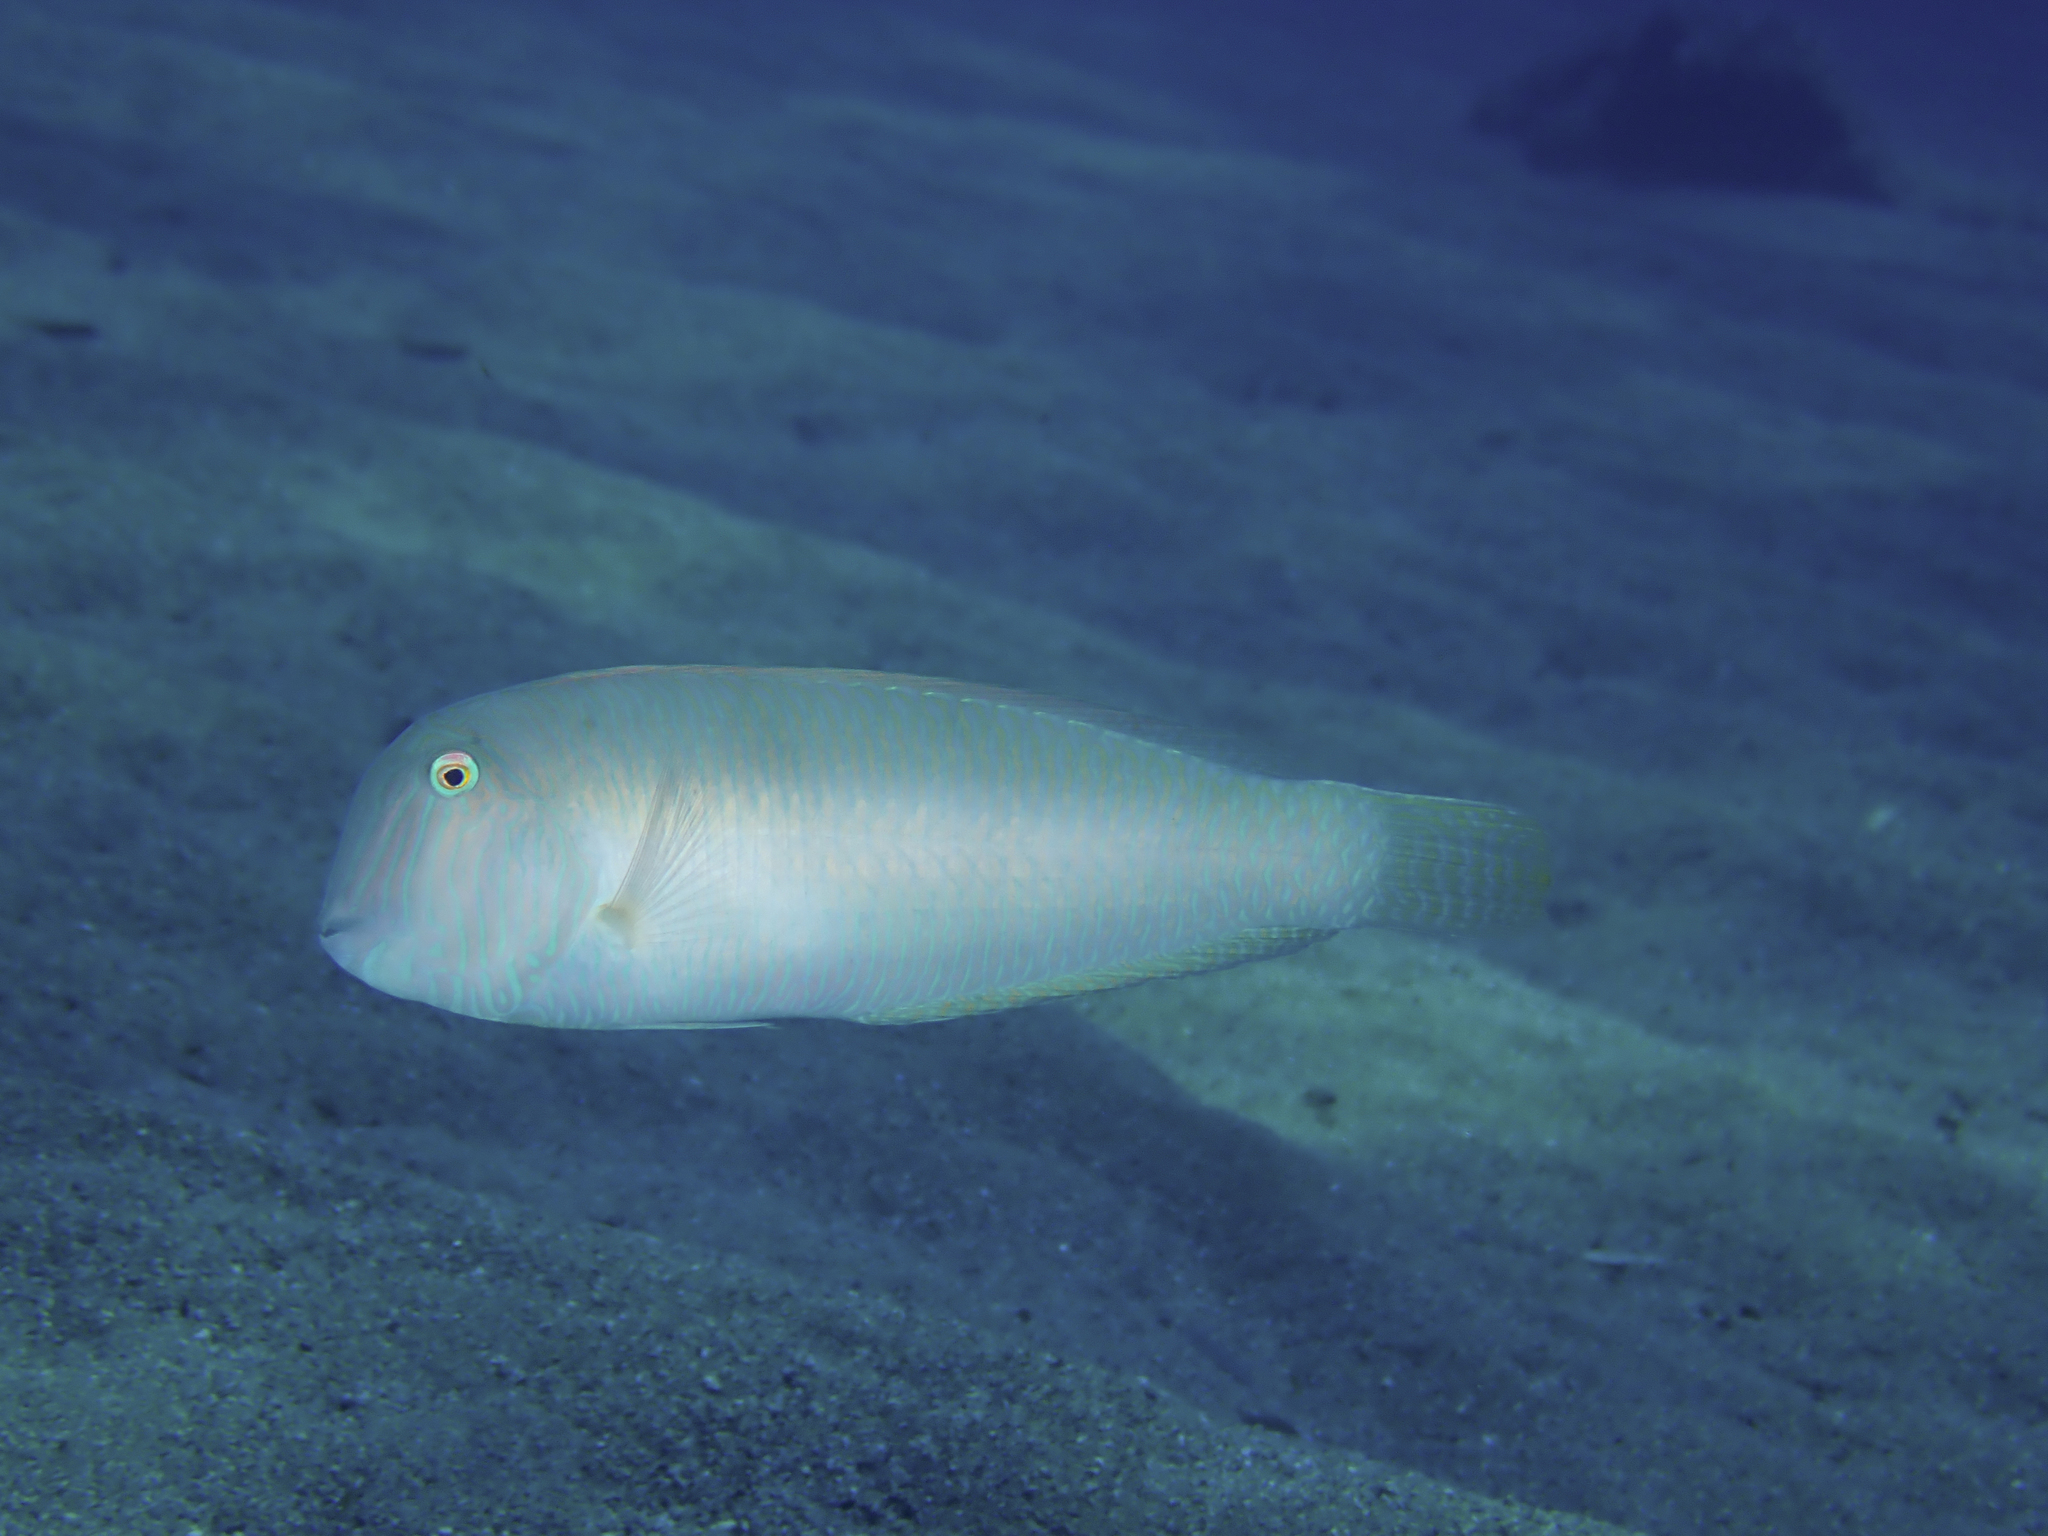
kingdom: Animalia
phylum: Chordata
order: Perciformes
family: Labridae
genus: Xyrichtys
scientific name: Xyrichtys novacula
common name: Pearly razorfish
